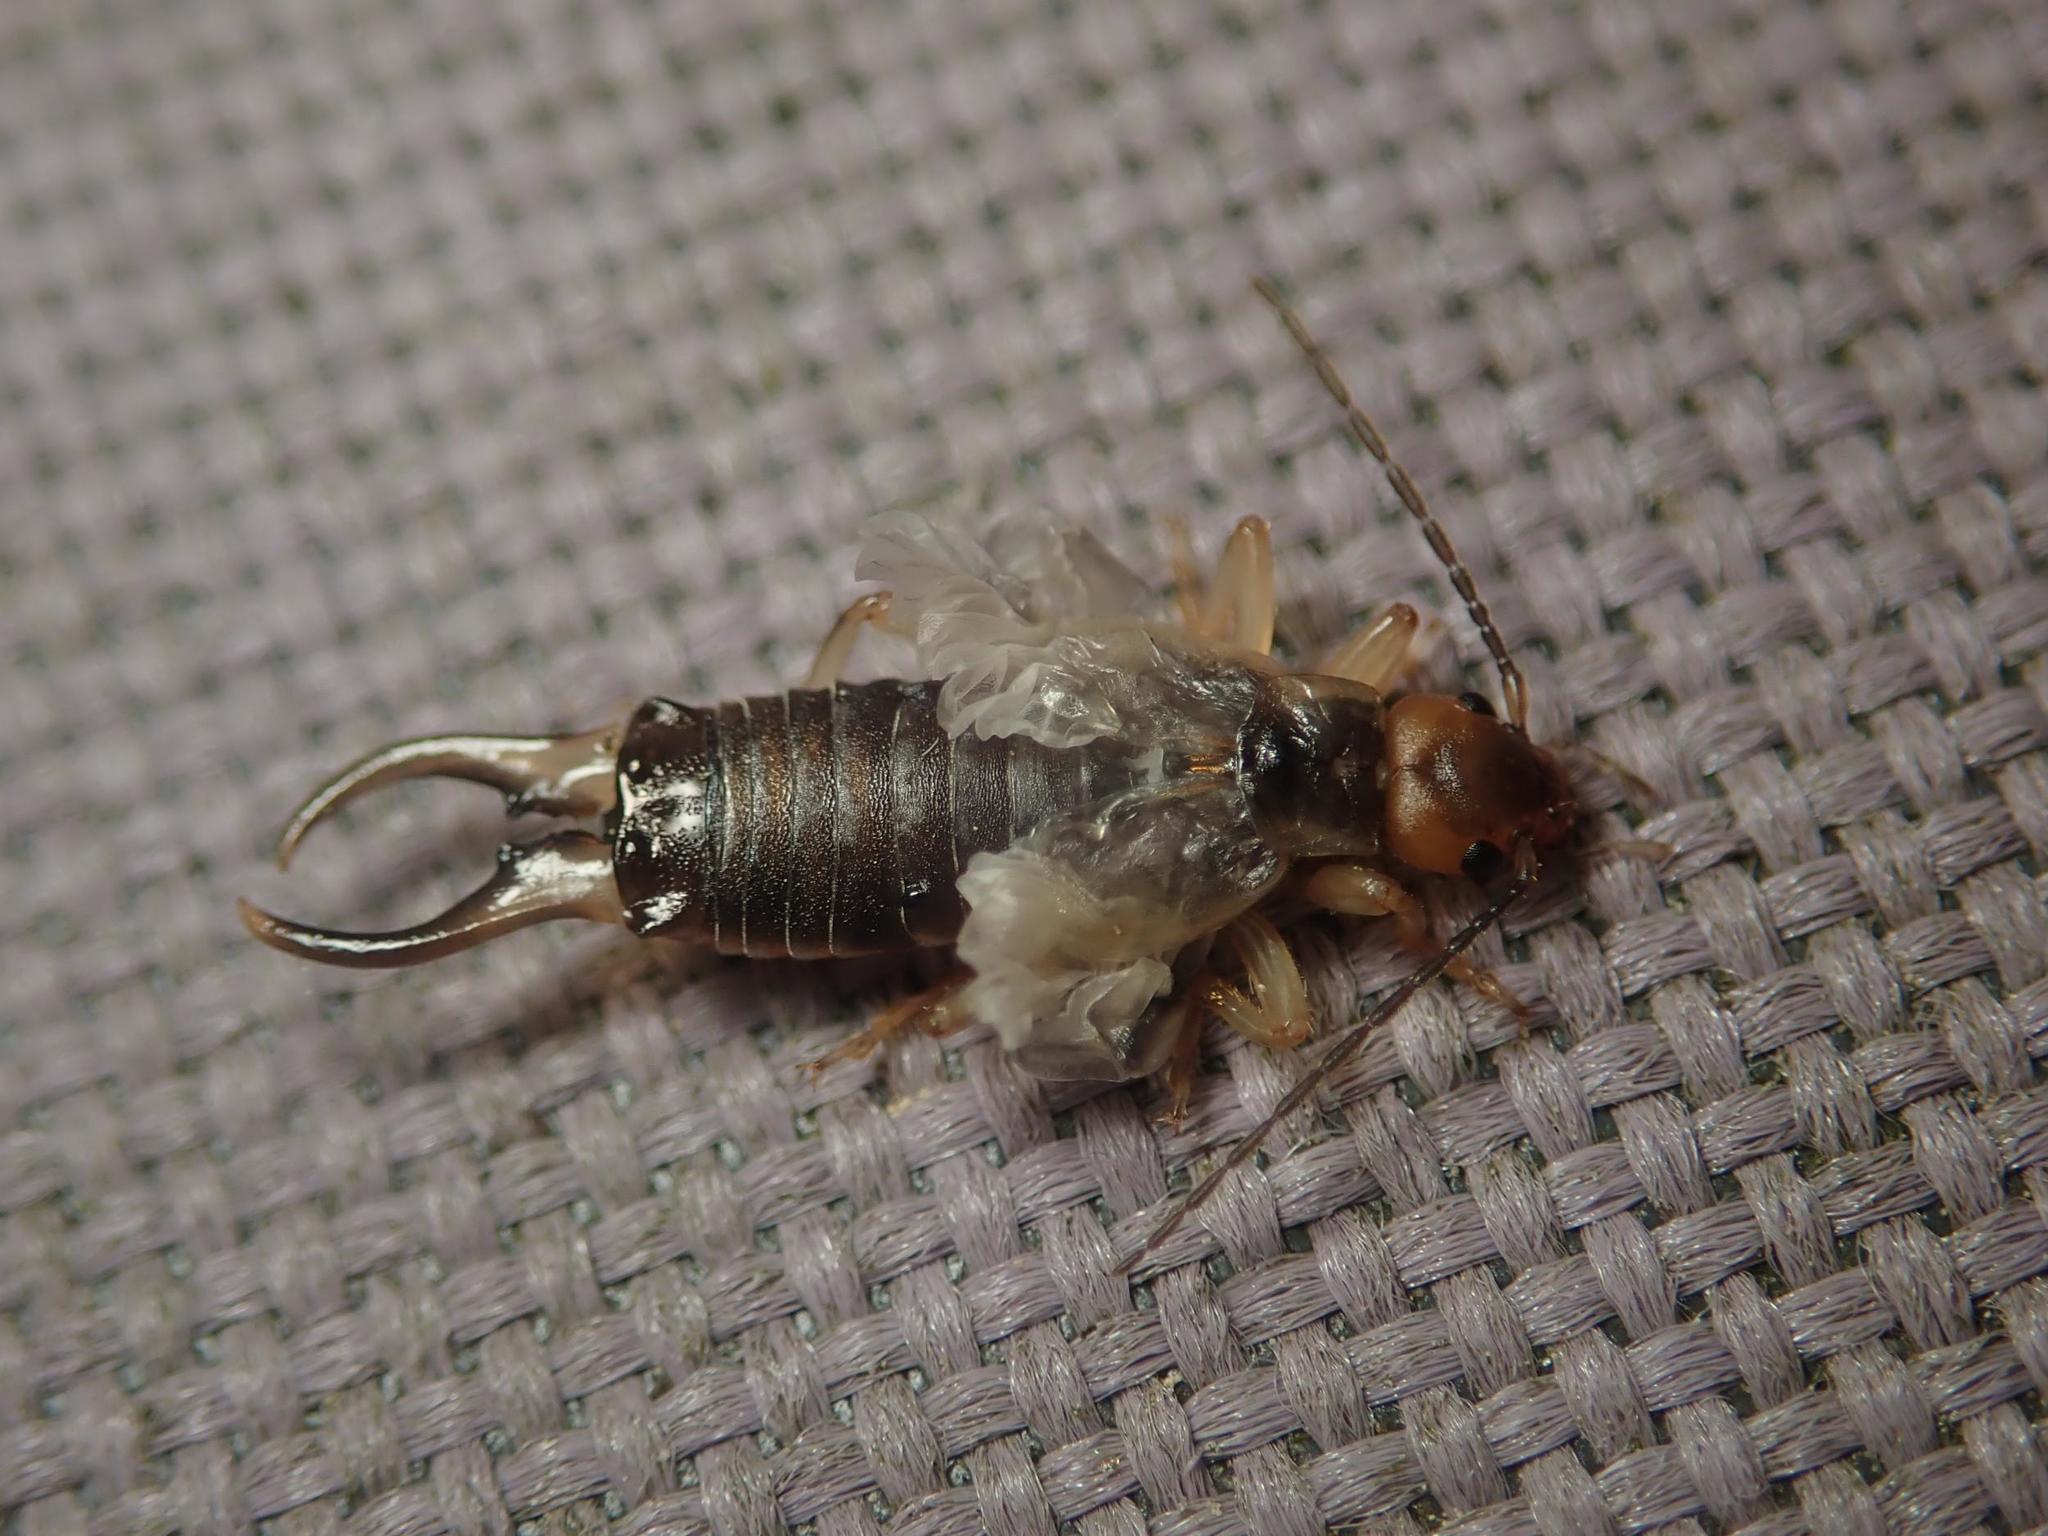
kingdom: Animalia
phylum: Arthropoda
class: Insecta
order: Dermaptera
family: Forficulidae
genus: Forficula
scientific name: Forficula
